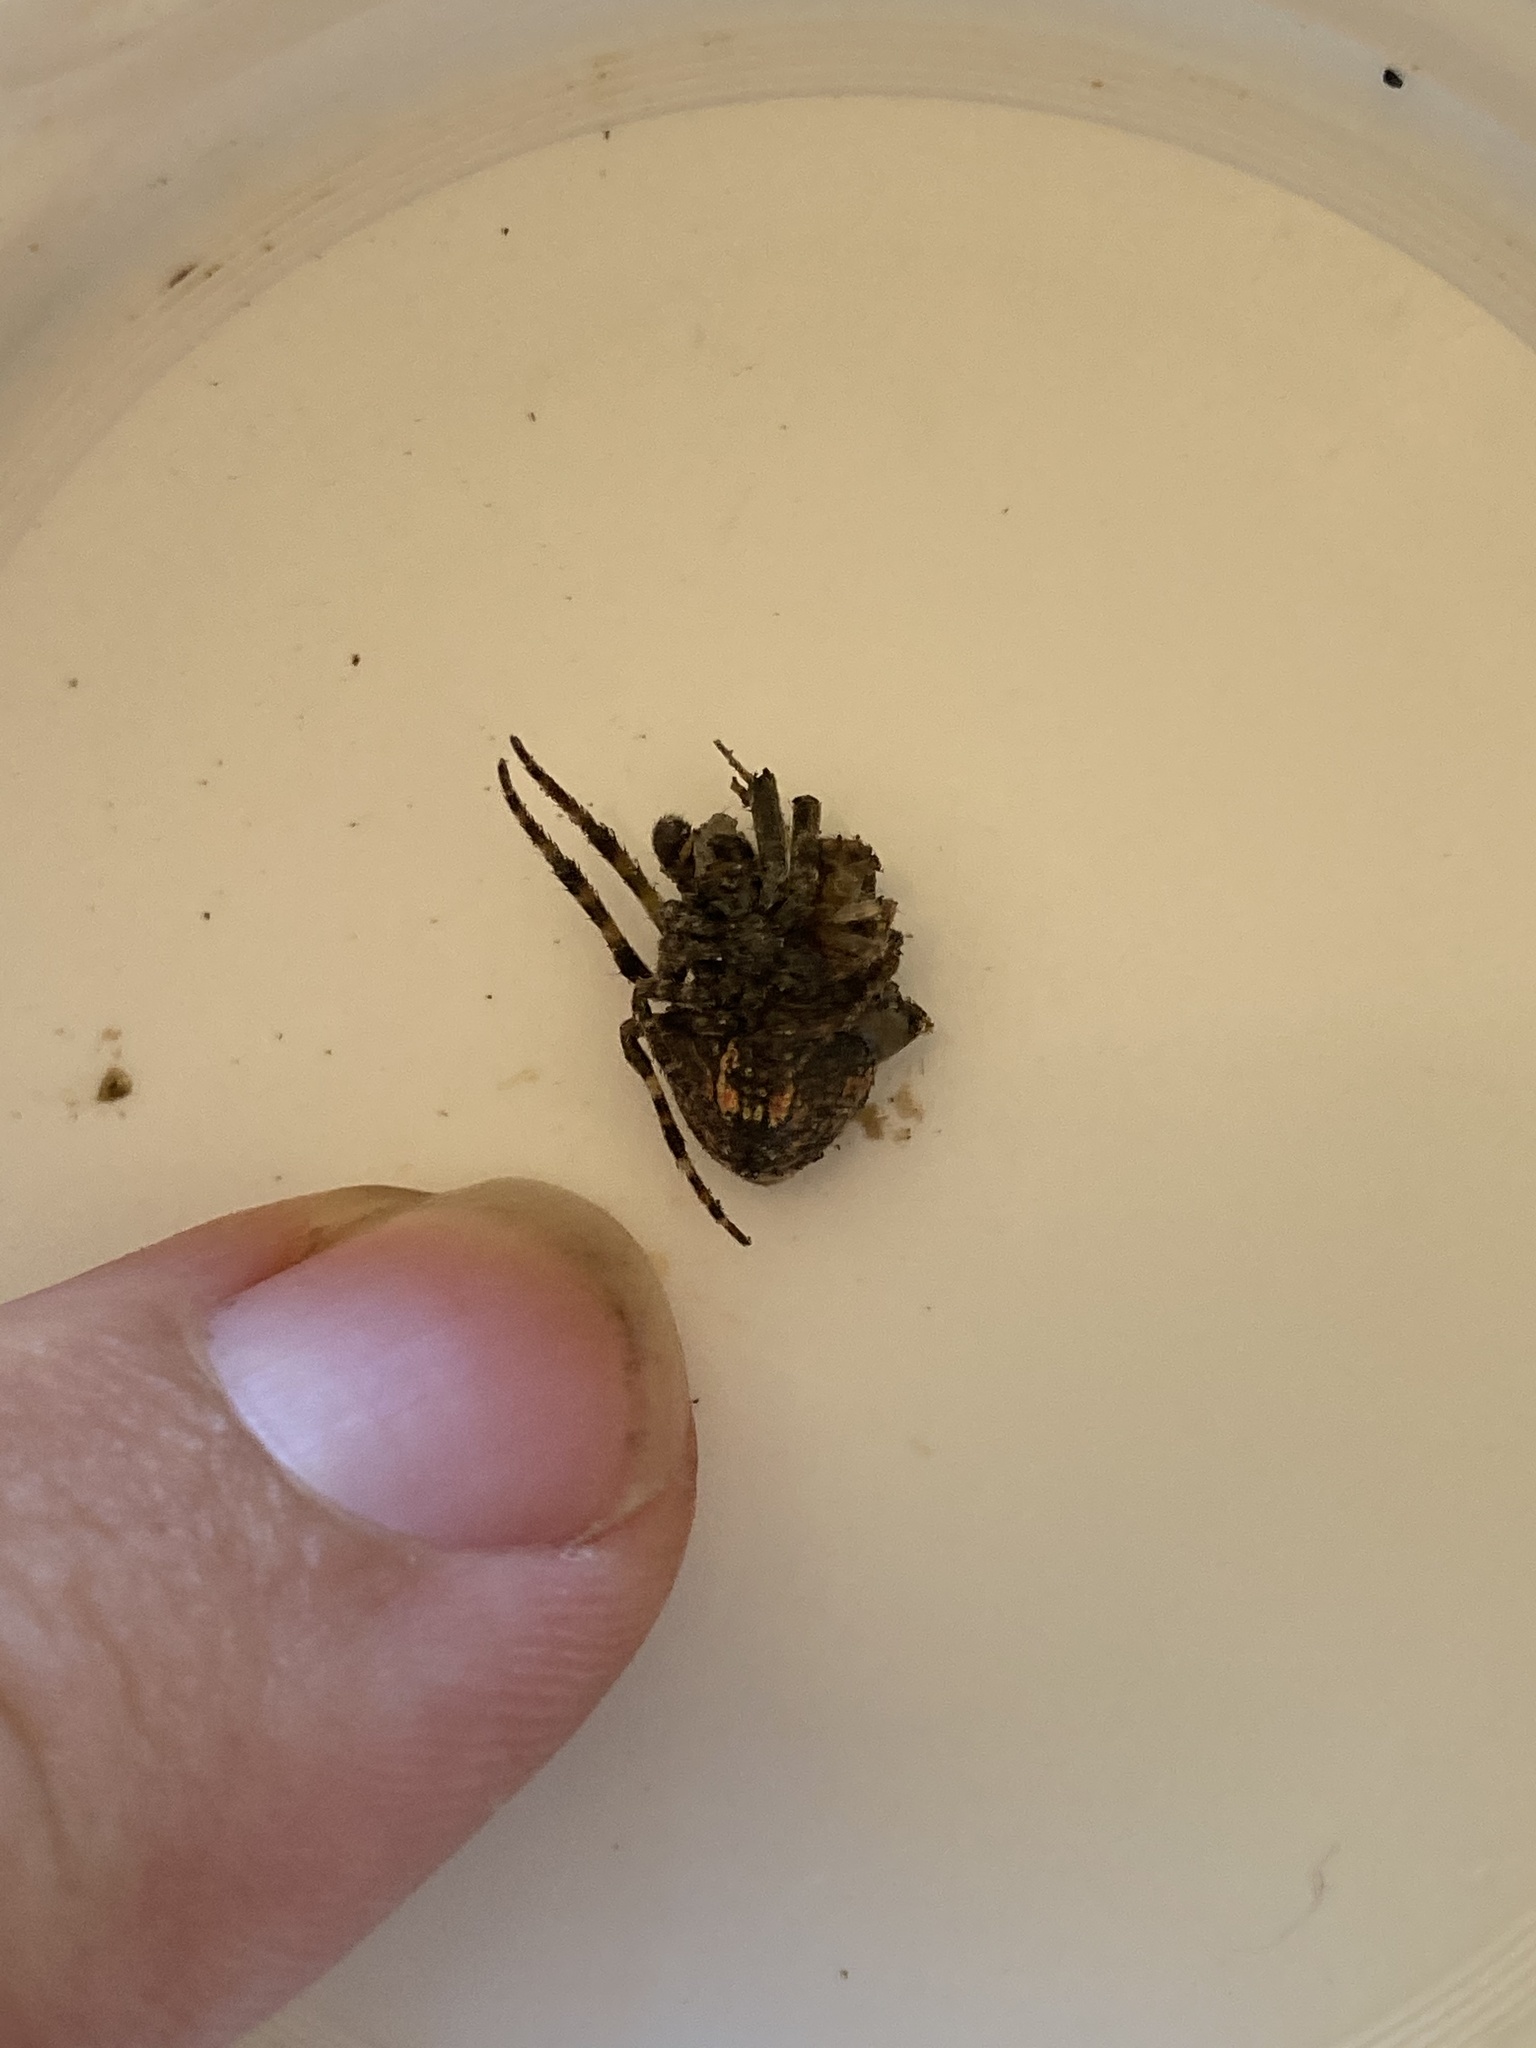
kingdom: Animalia
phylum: Arthropoda
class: Arachnida
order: Araneae
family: Araneidae
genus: Salsa
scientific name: Salsa fuliginata
